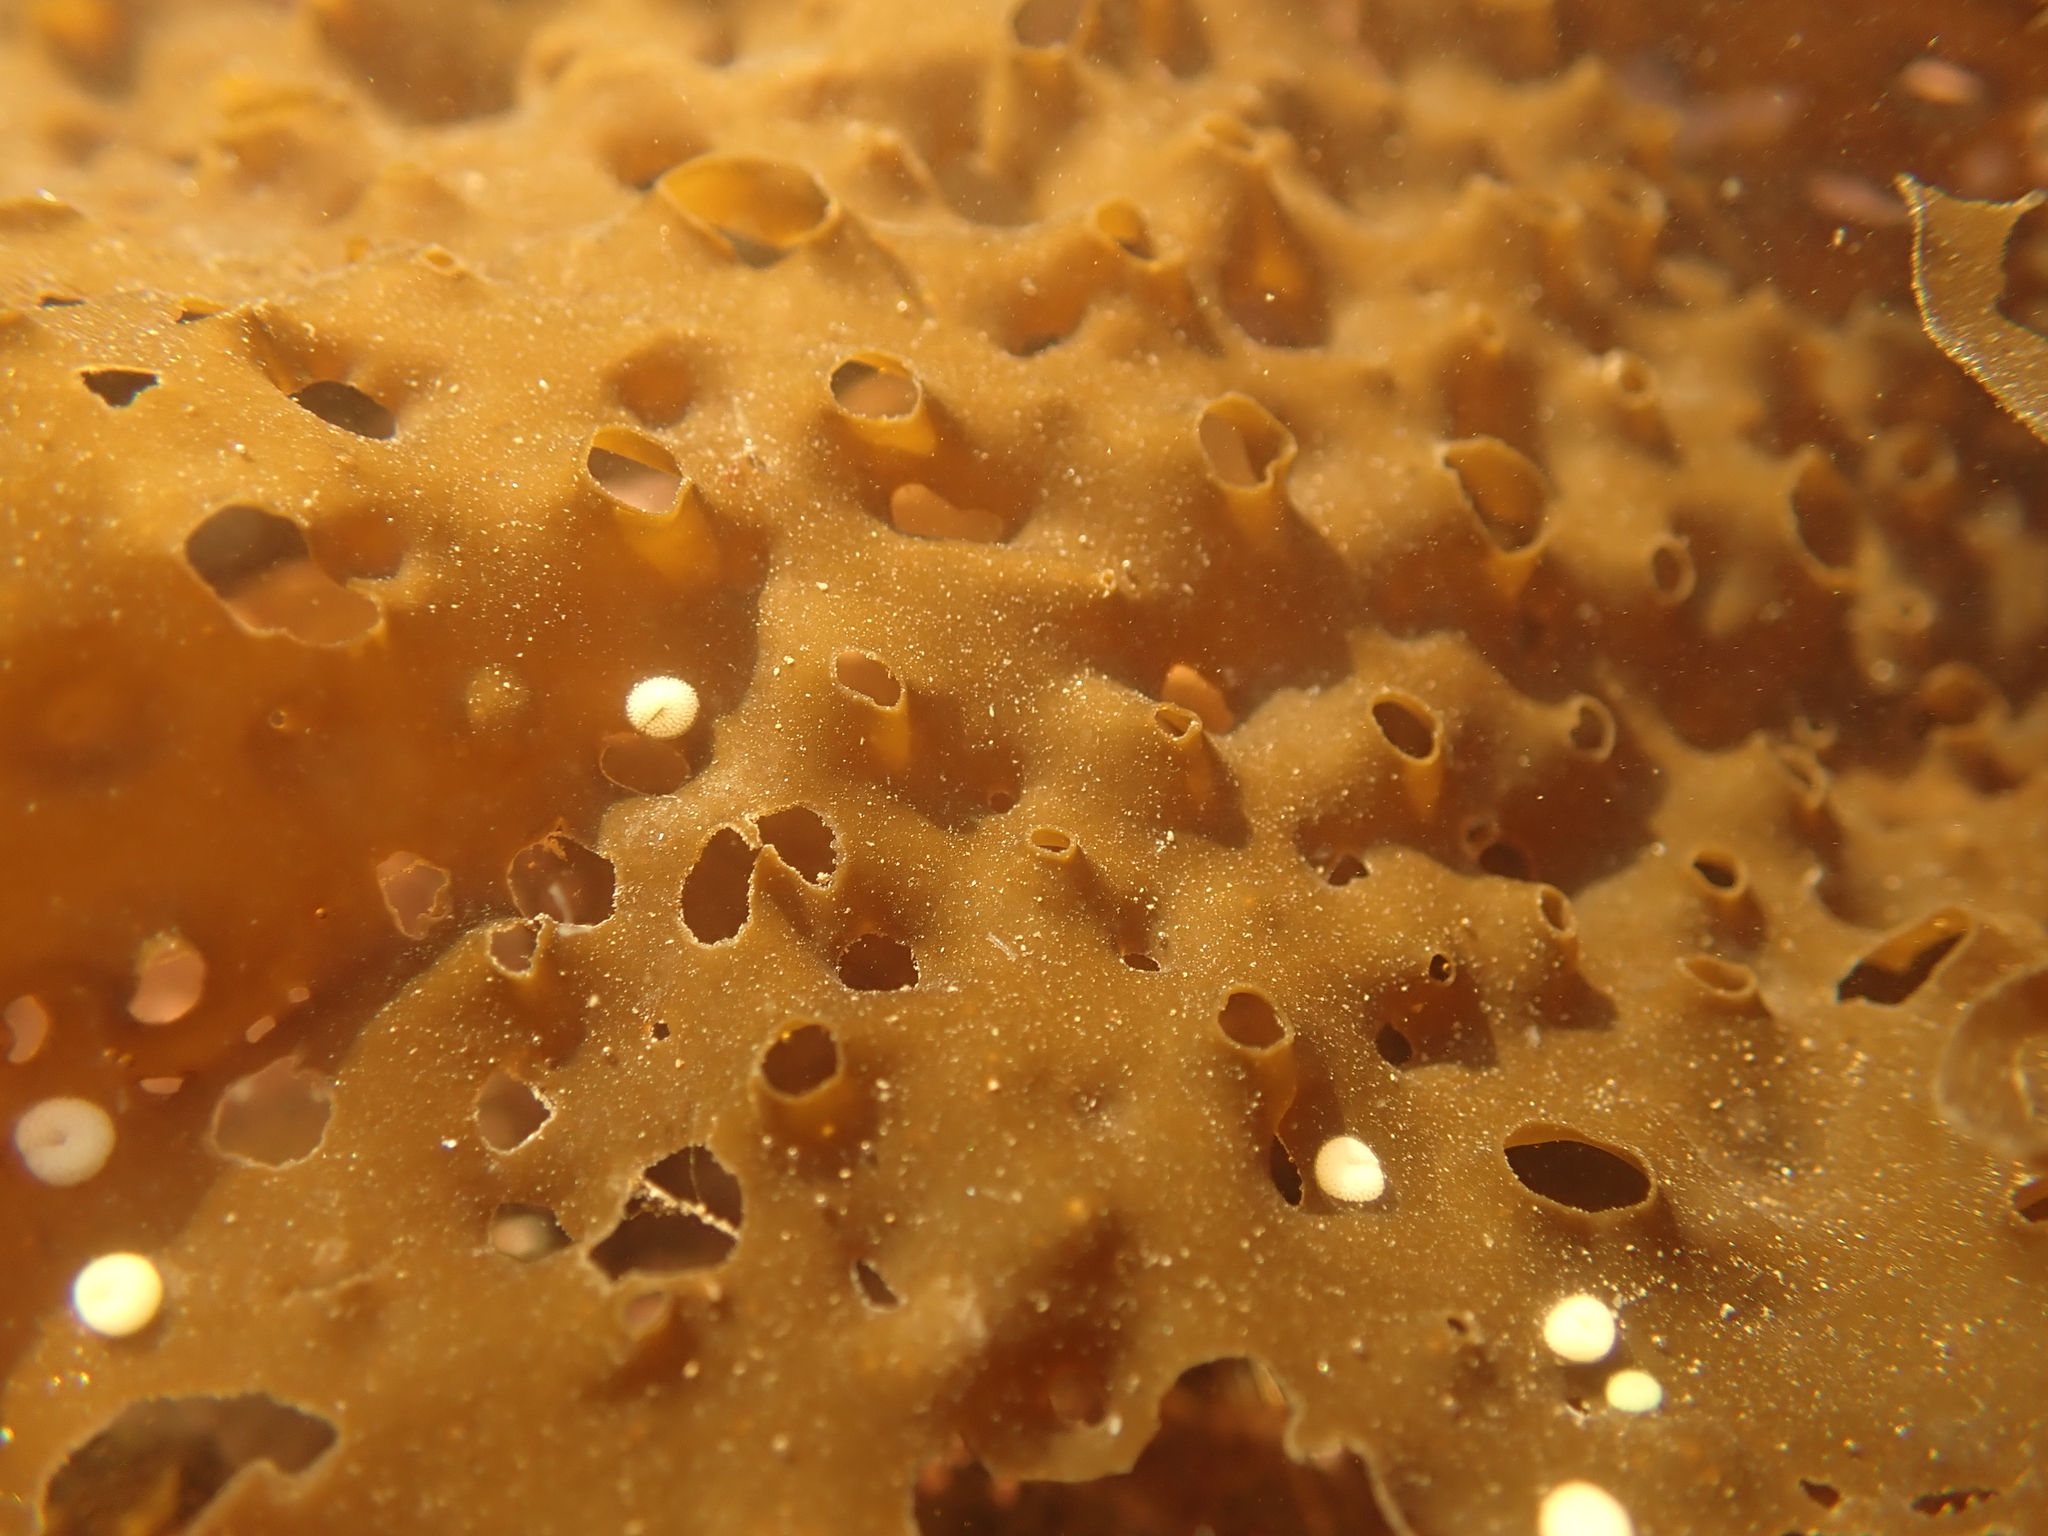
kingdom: Chromista
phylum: Ochrophyta
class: Phaeophyceae
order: Laminariales
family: Costariaceae
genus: Agarum
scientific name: Agarum clathratum
